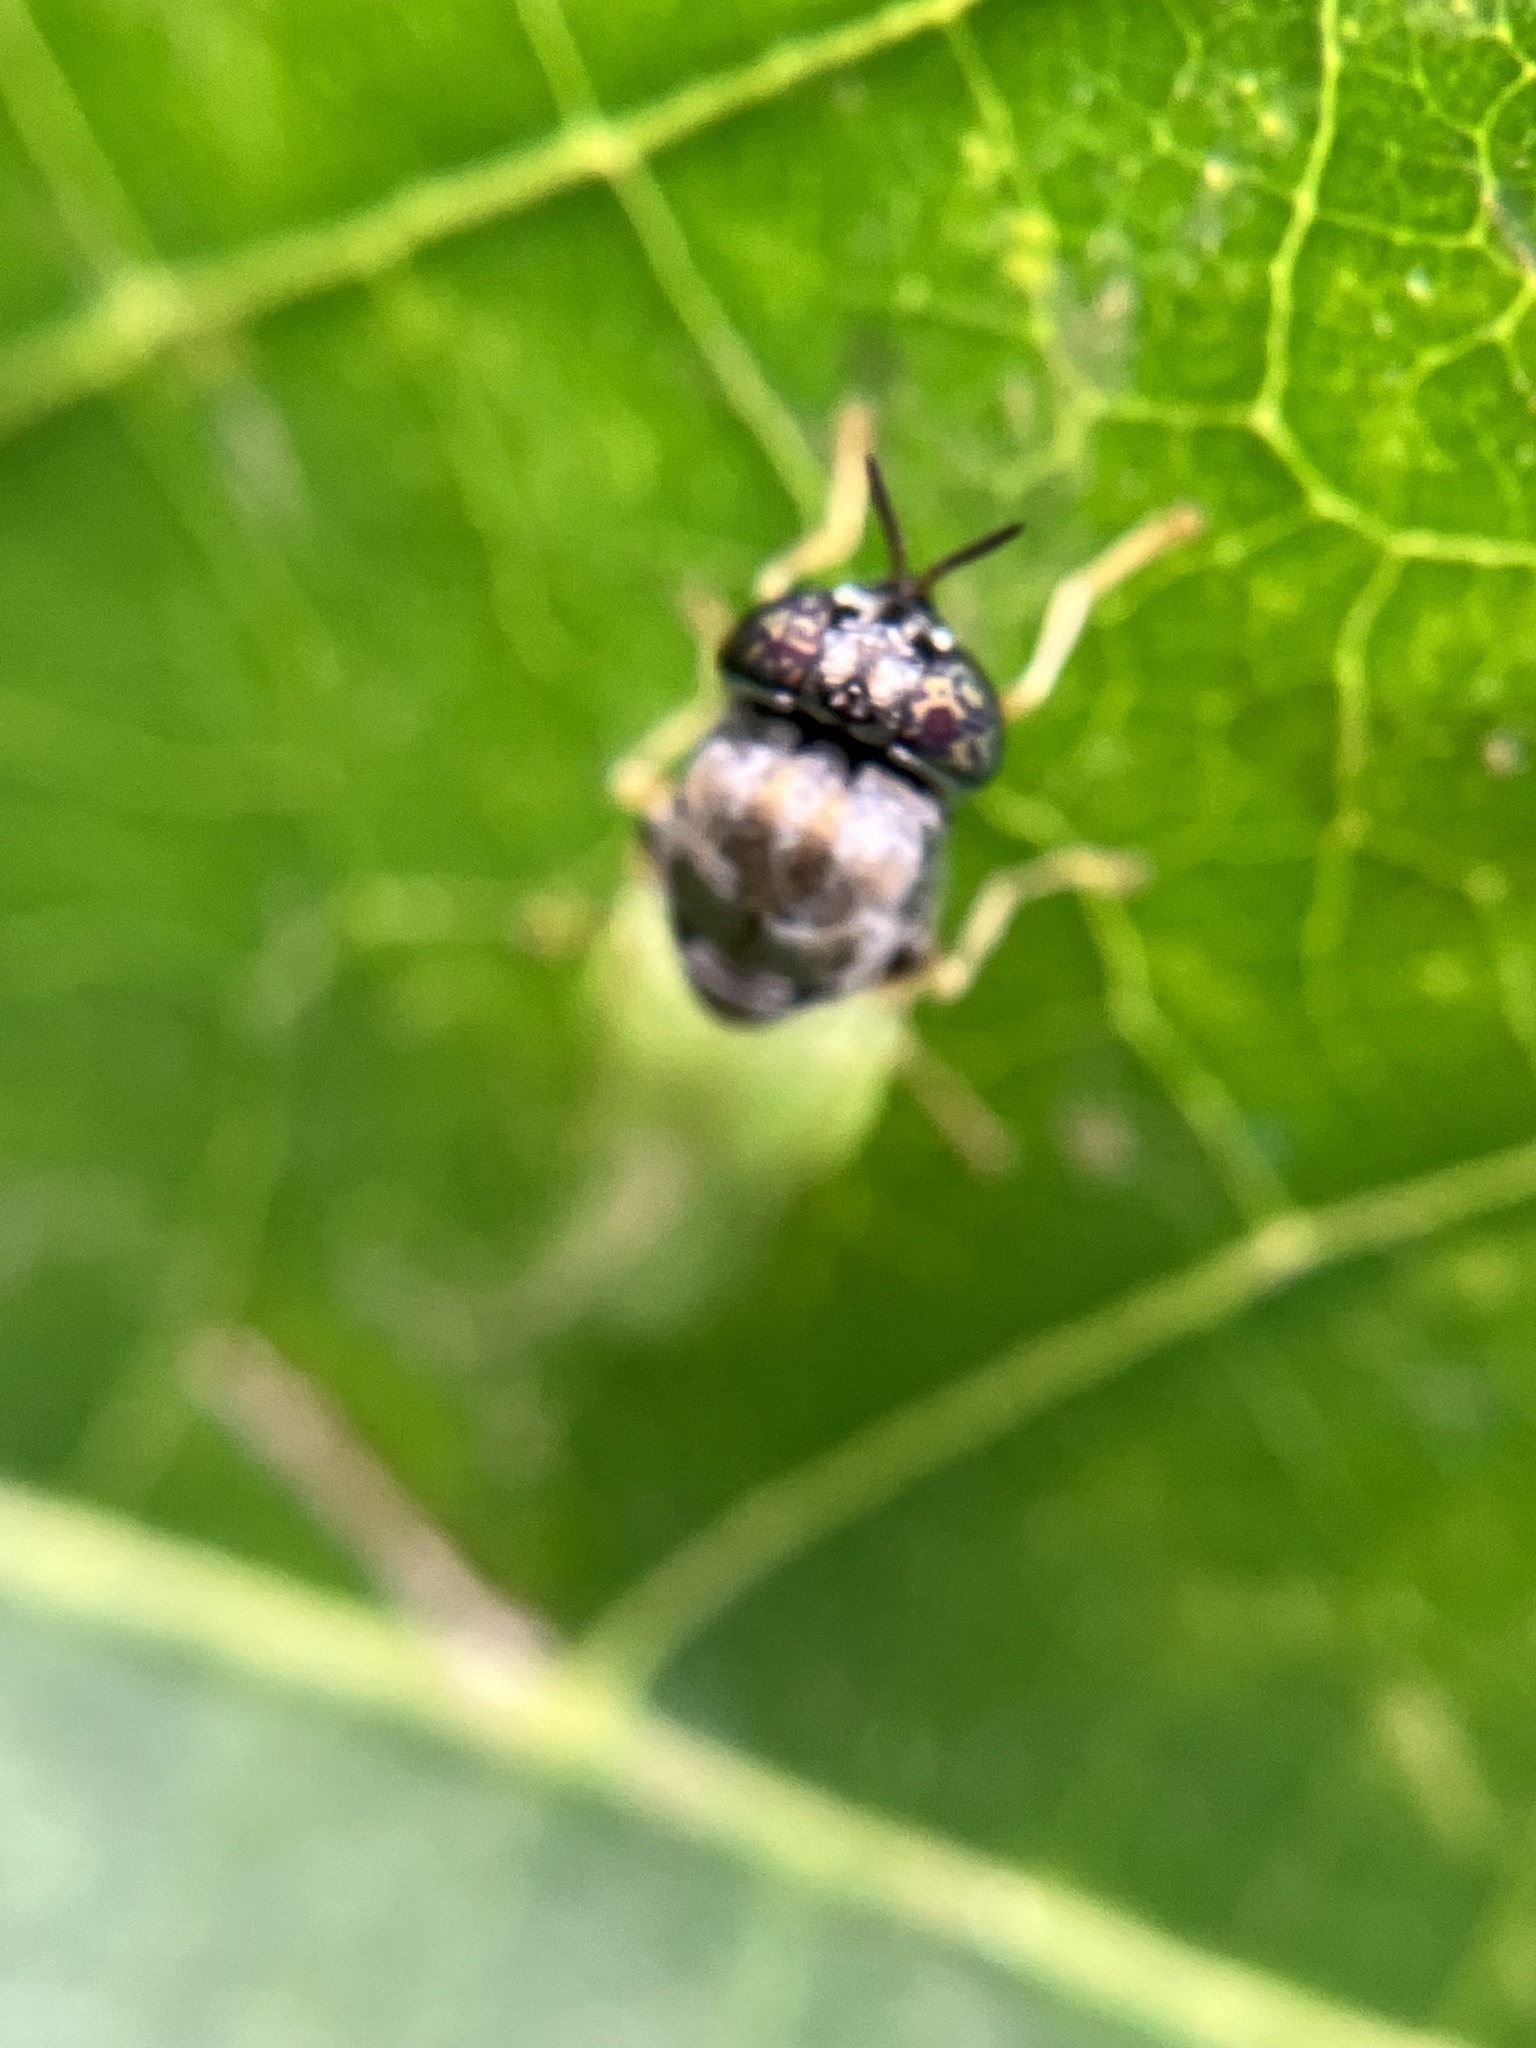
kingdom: Animalia
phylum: Arthropoda
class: Insecta
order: Diptera
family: Stratiomyidae
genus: Oplodontha
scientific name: Oplodontha rubrithorax
